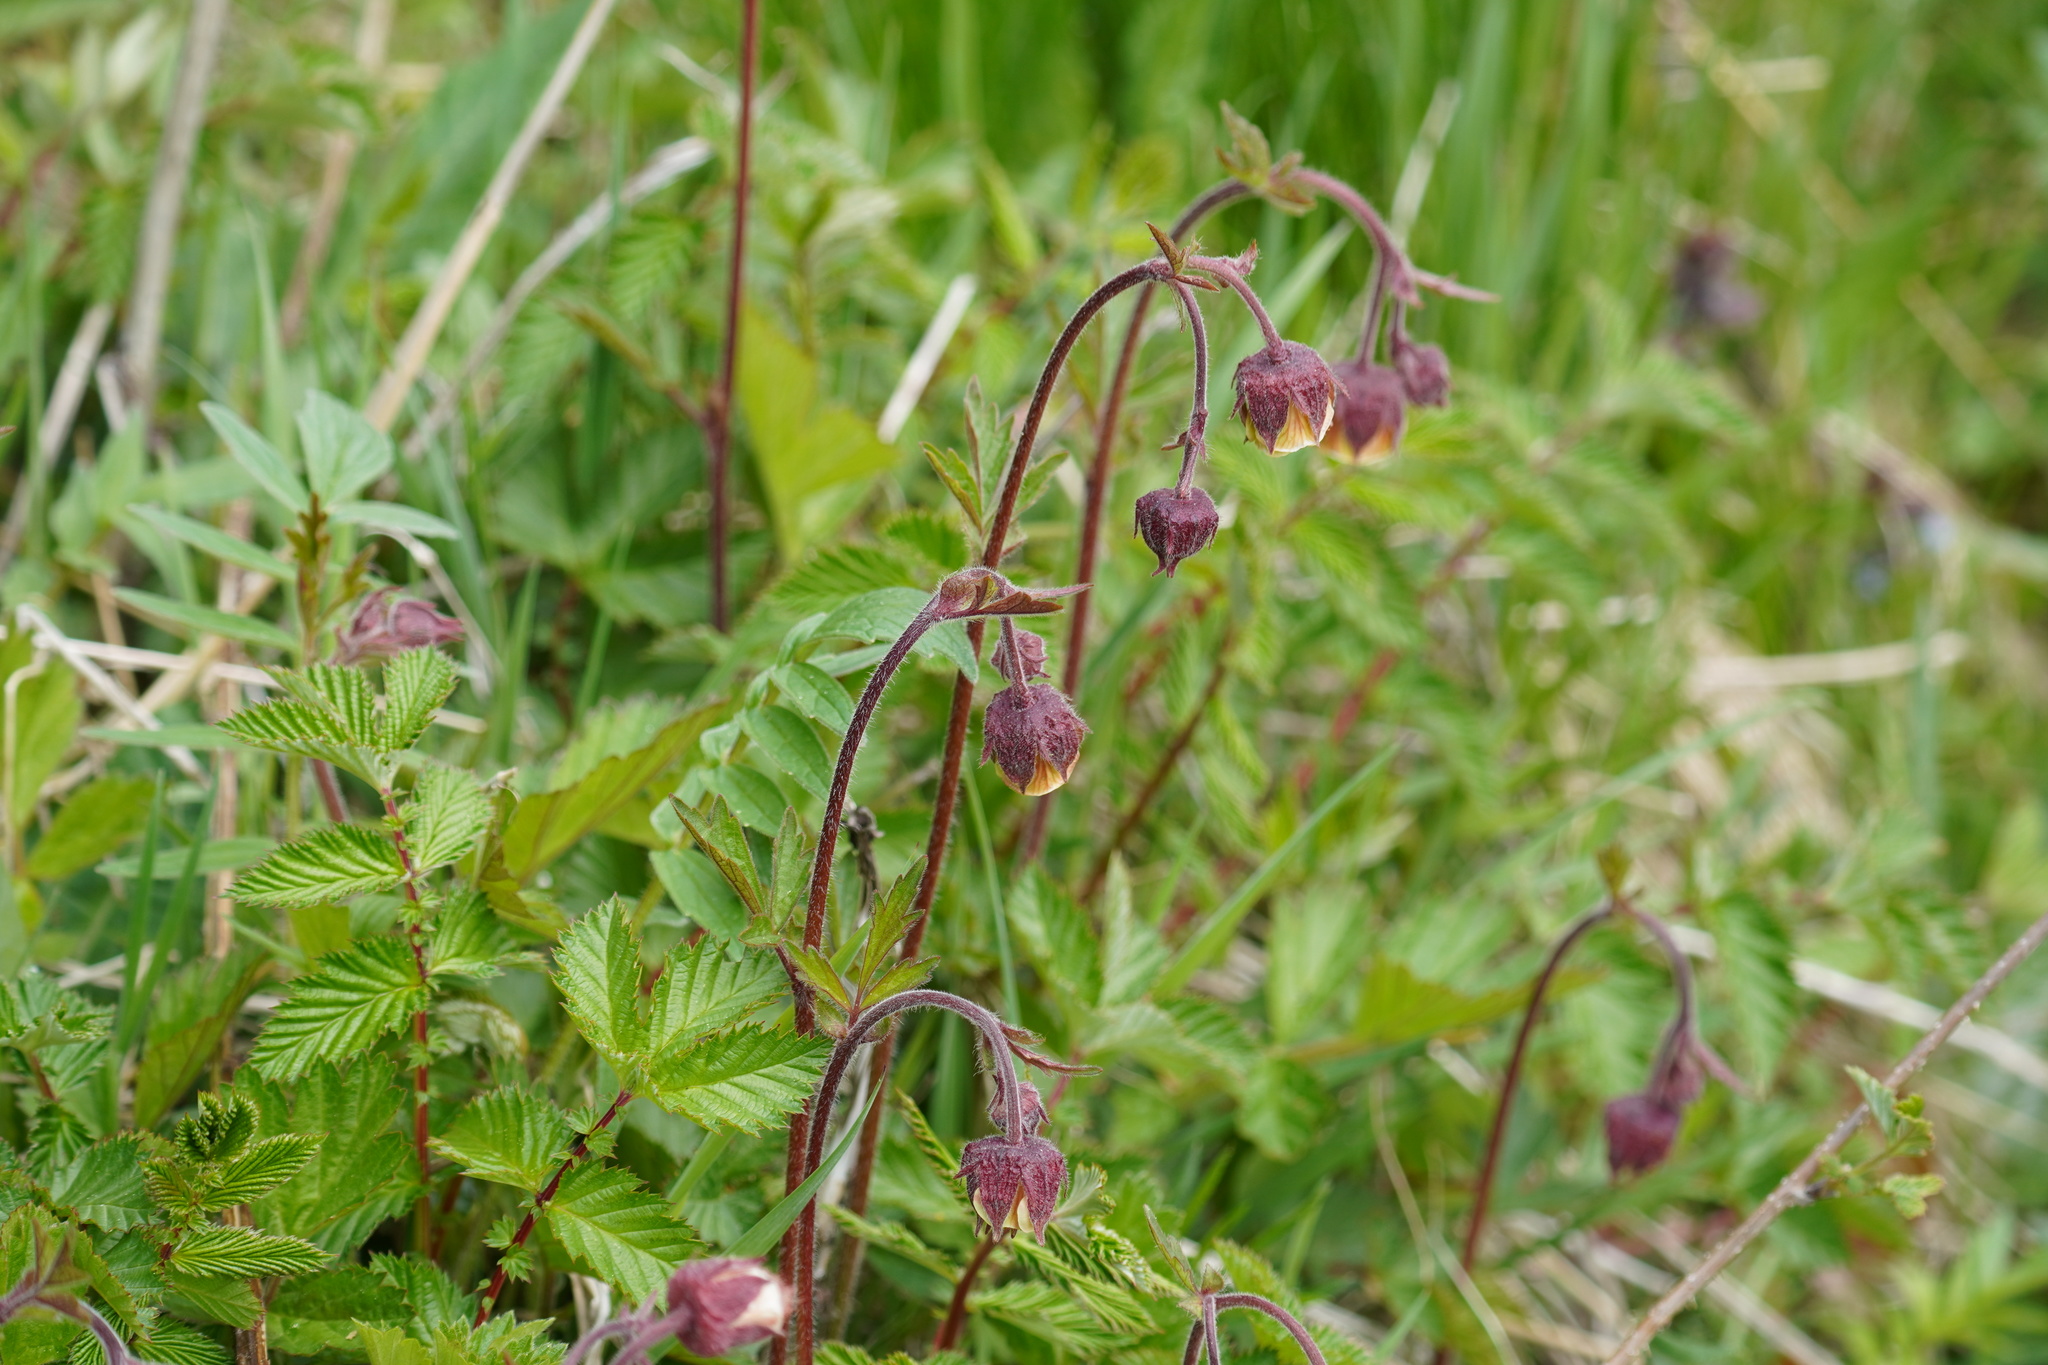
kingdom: Plantae
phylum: Tracheophyta
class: Magnoliopsida
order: Rosales
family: Rosaceae
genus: Geum
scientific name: Geum rivale
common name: Water avens
